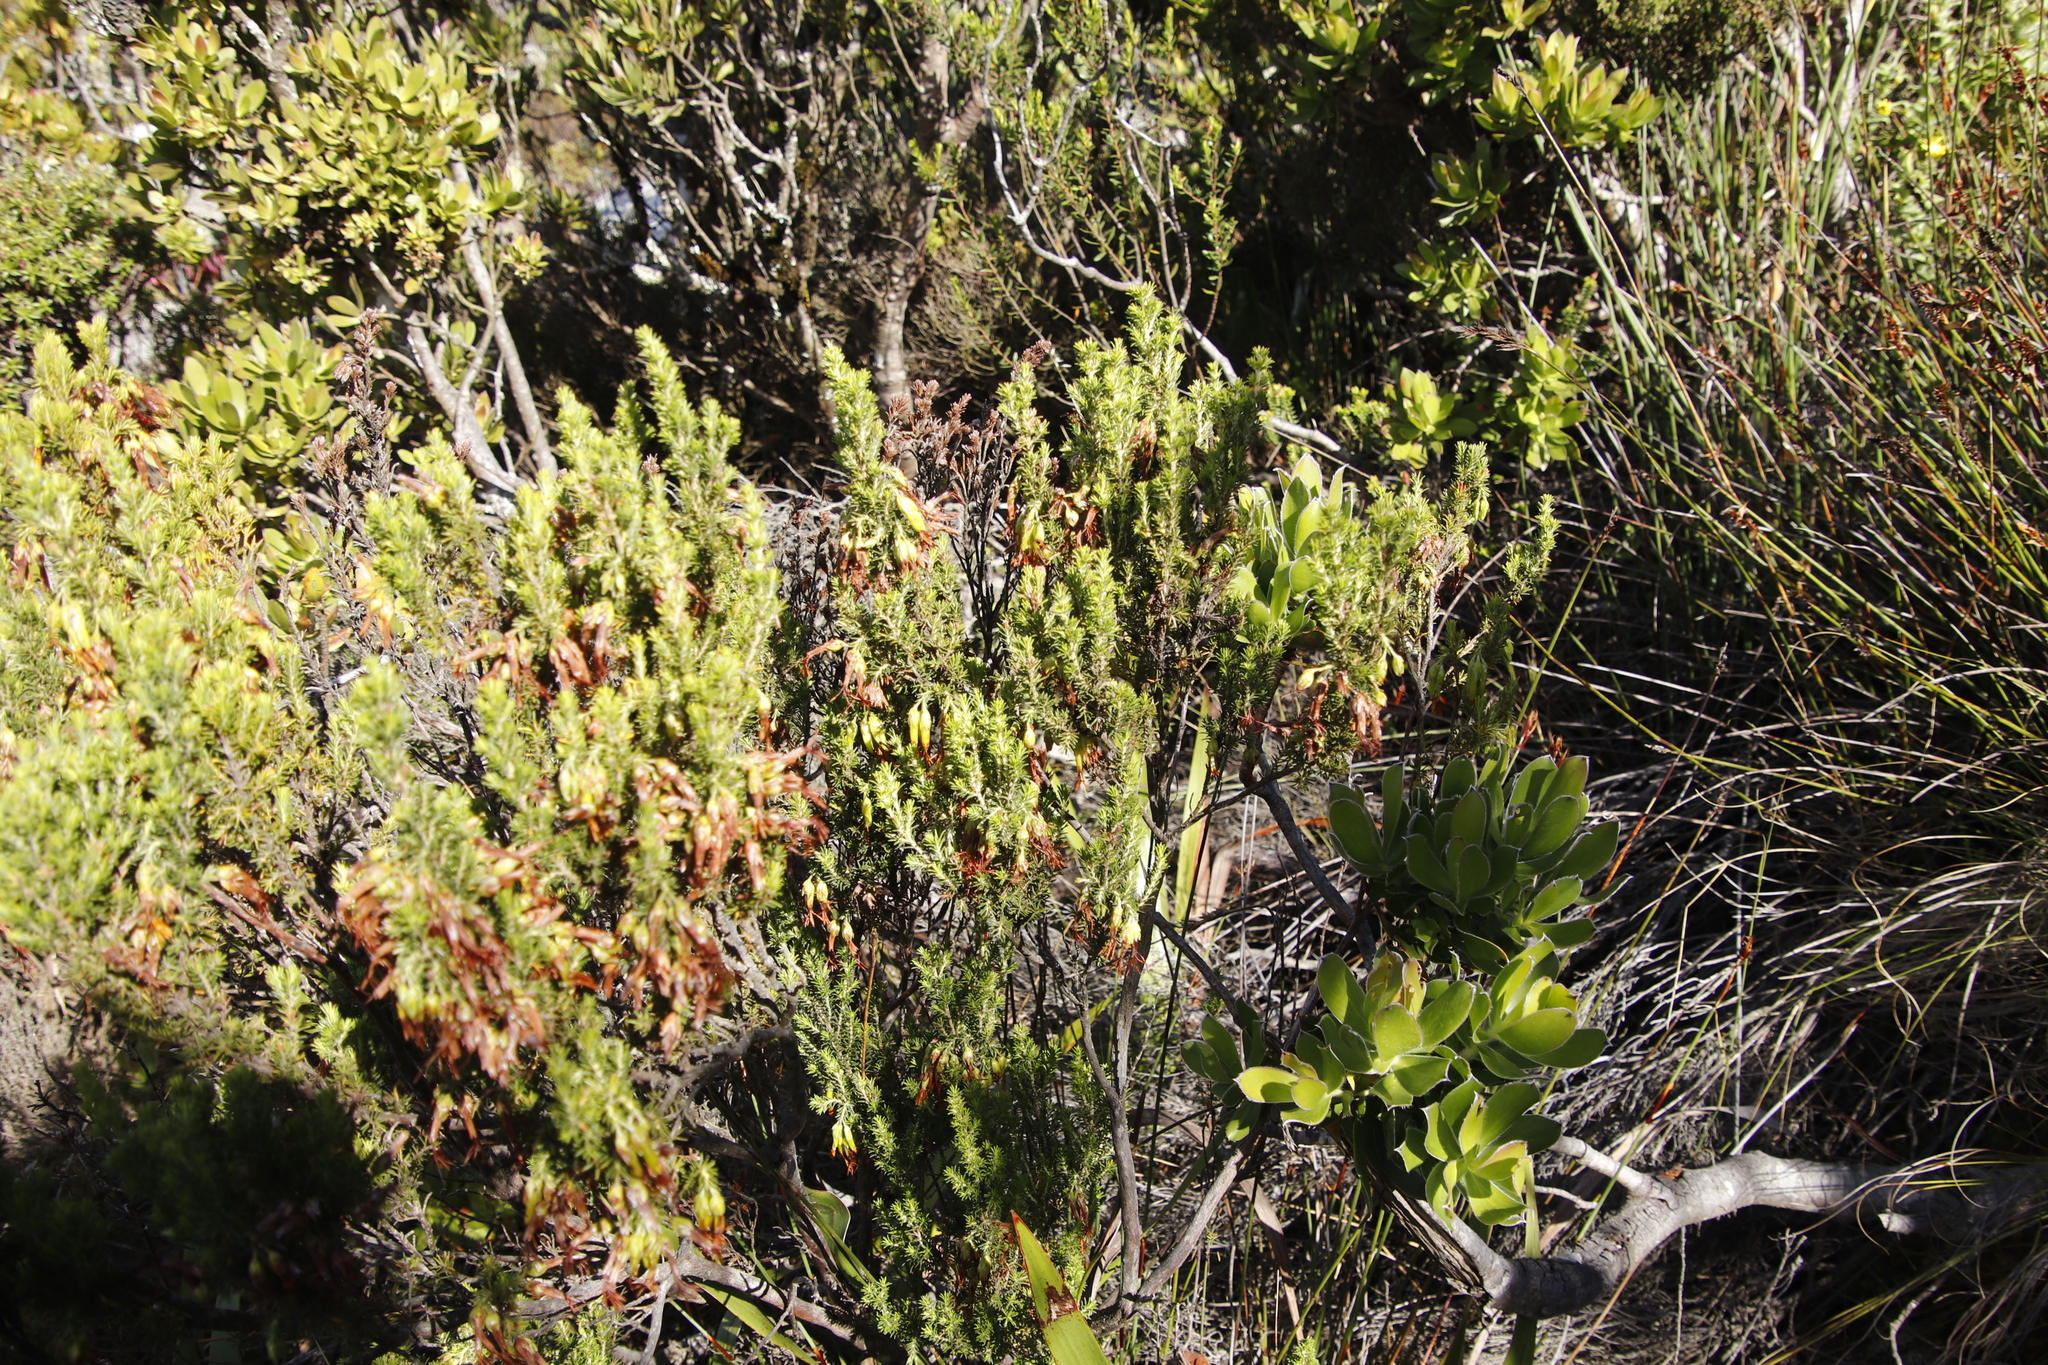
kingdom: Plantae
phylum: Tracheophyta
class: Magnoliopsida
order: Ericales
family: Ericaceae
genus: Erica
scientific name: Erica coccinea
